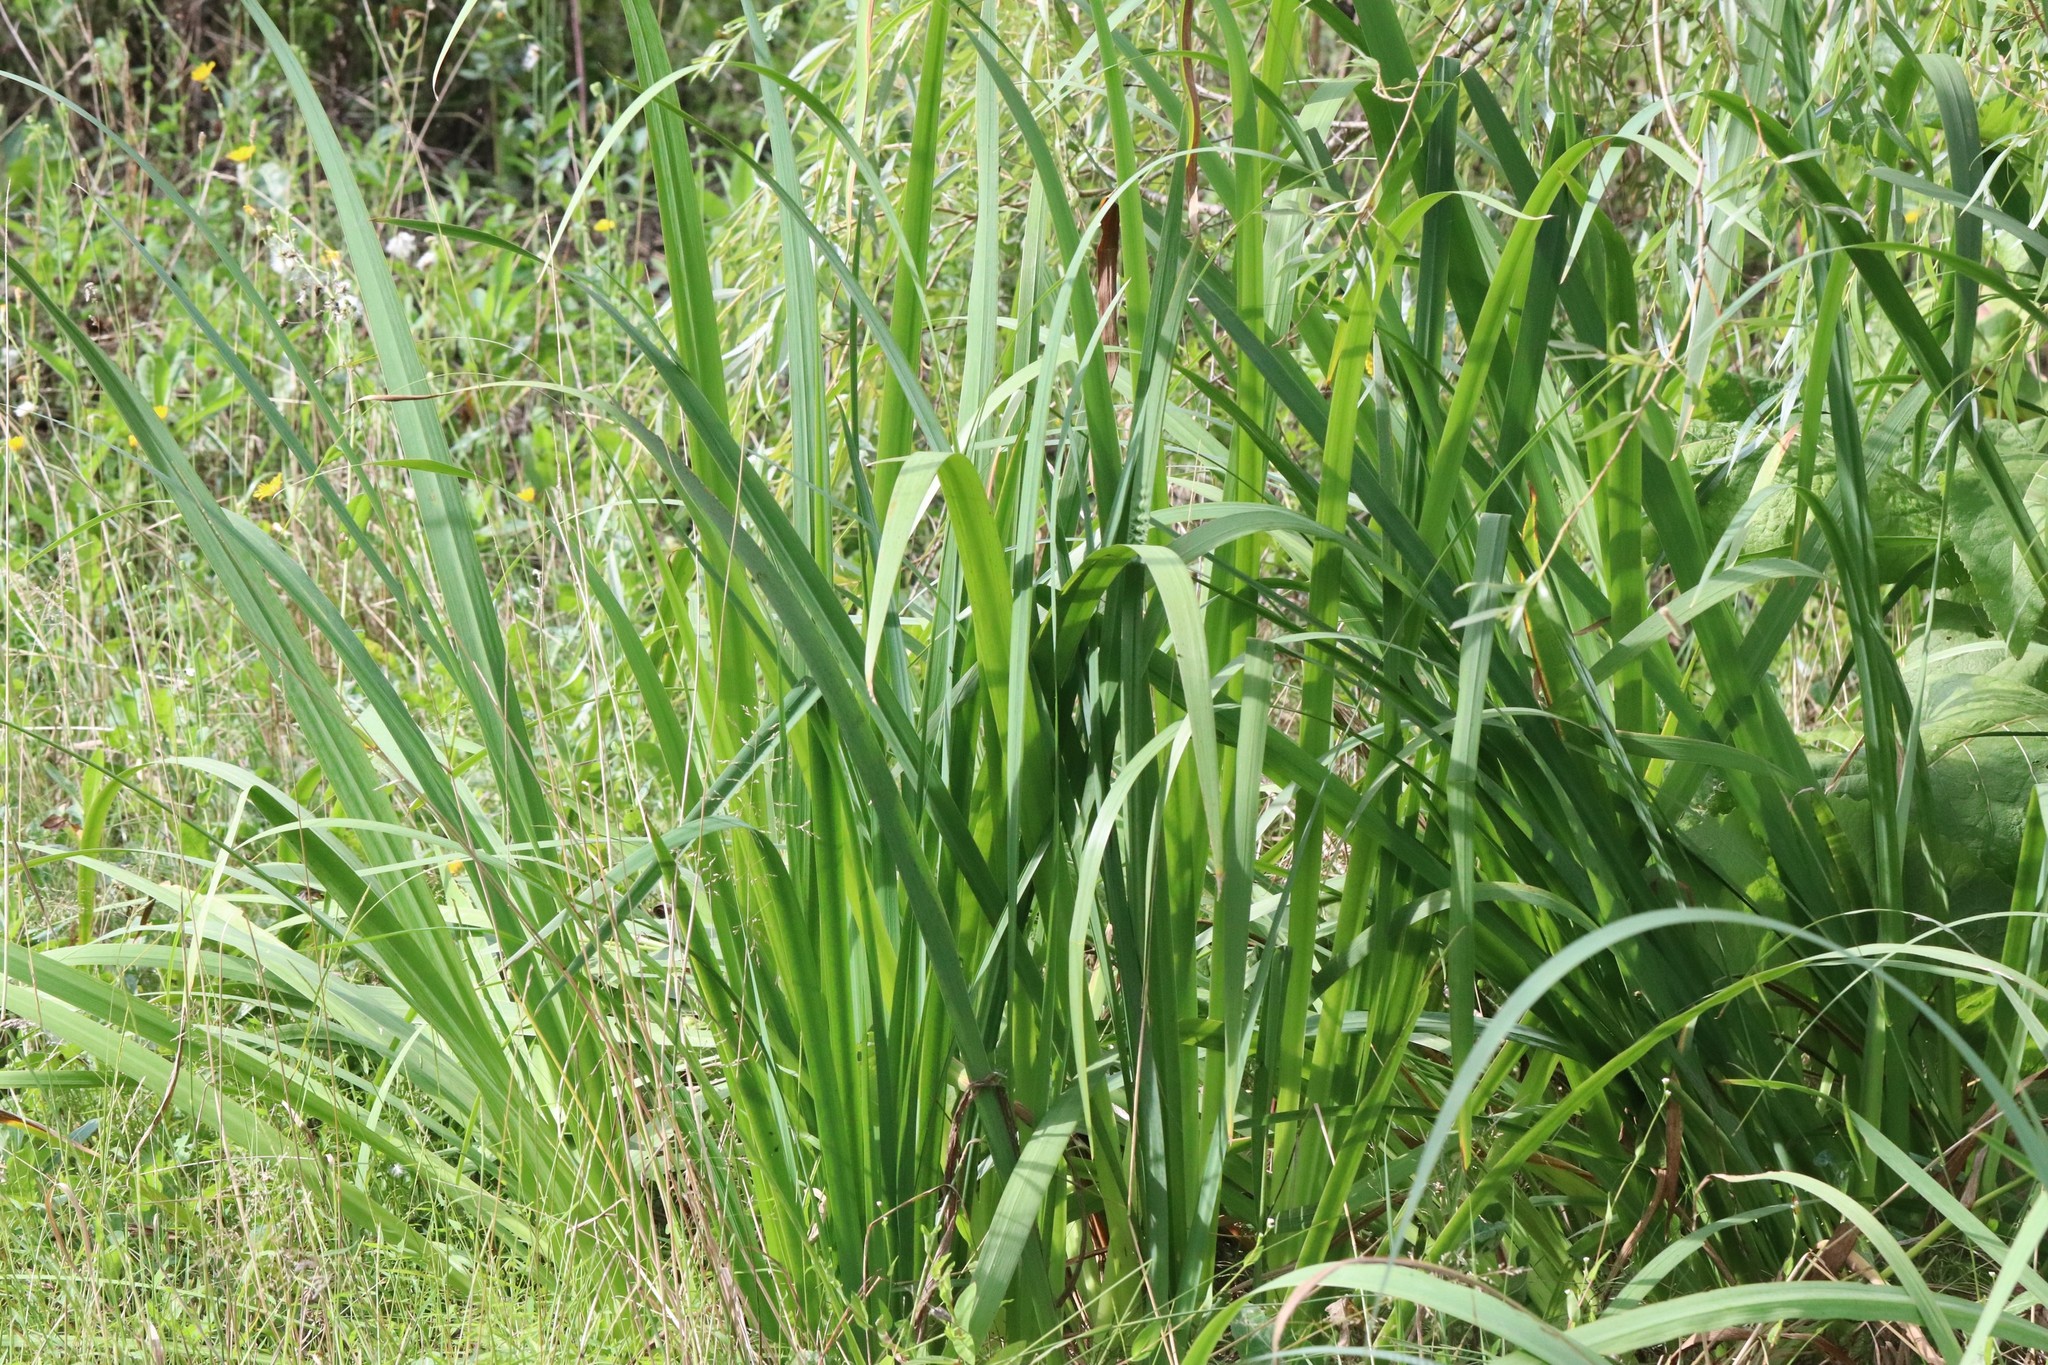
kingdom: Plantae
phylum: Tracheophyta
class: Liliopsida
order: Asparagales
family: Iridaceae
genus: Iris
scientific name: Iris ensata
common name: Beaked iris
